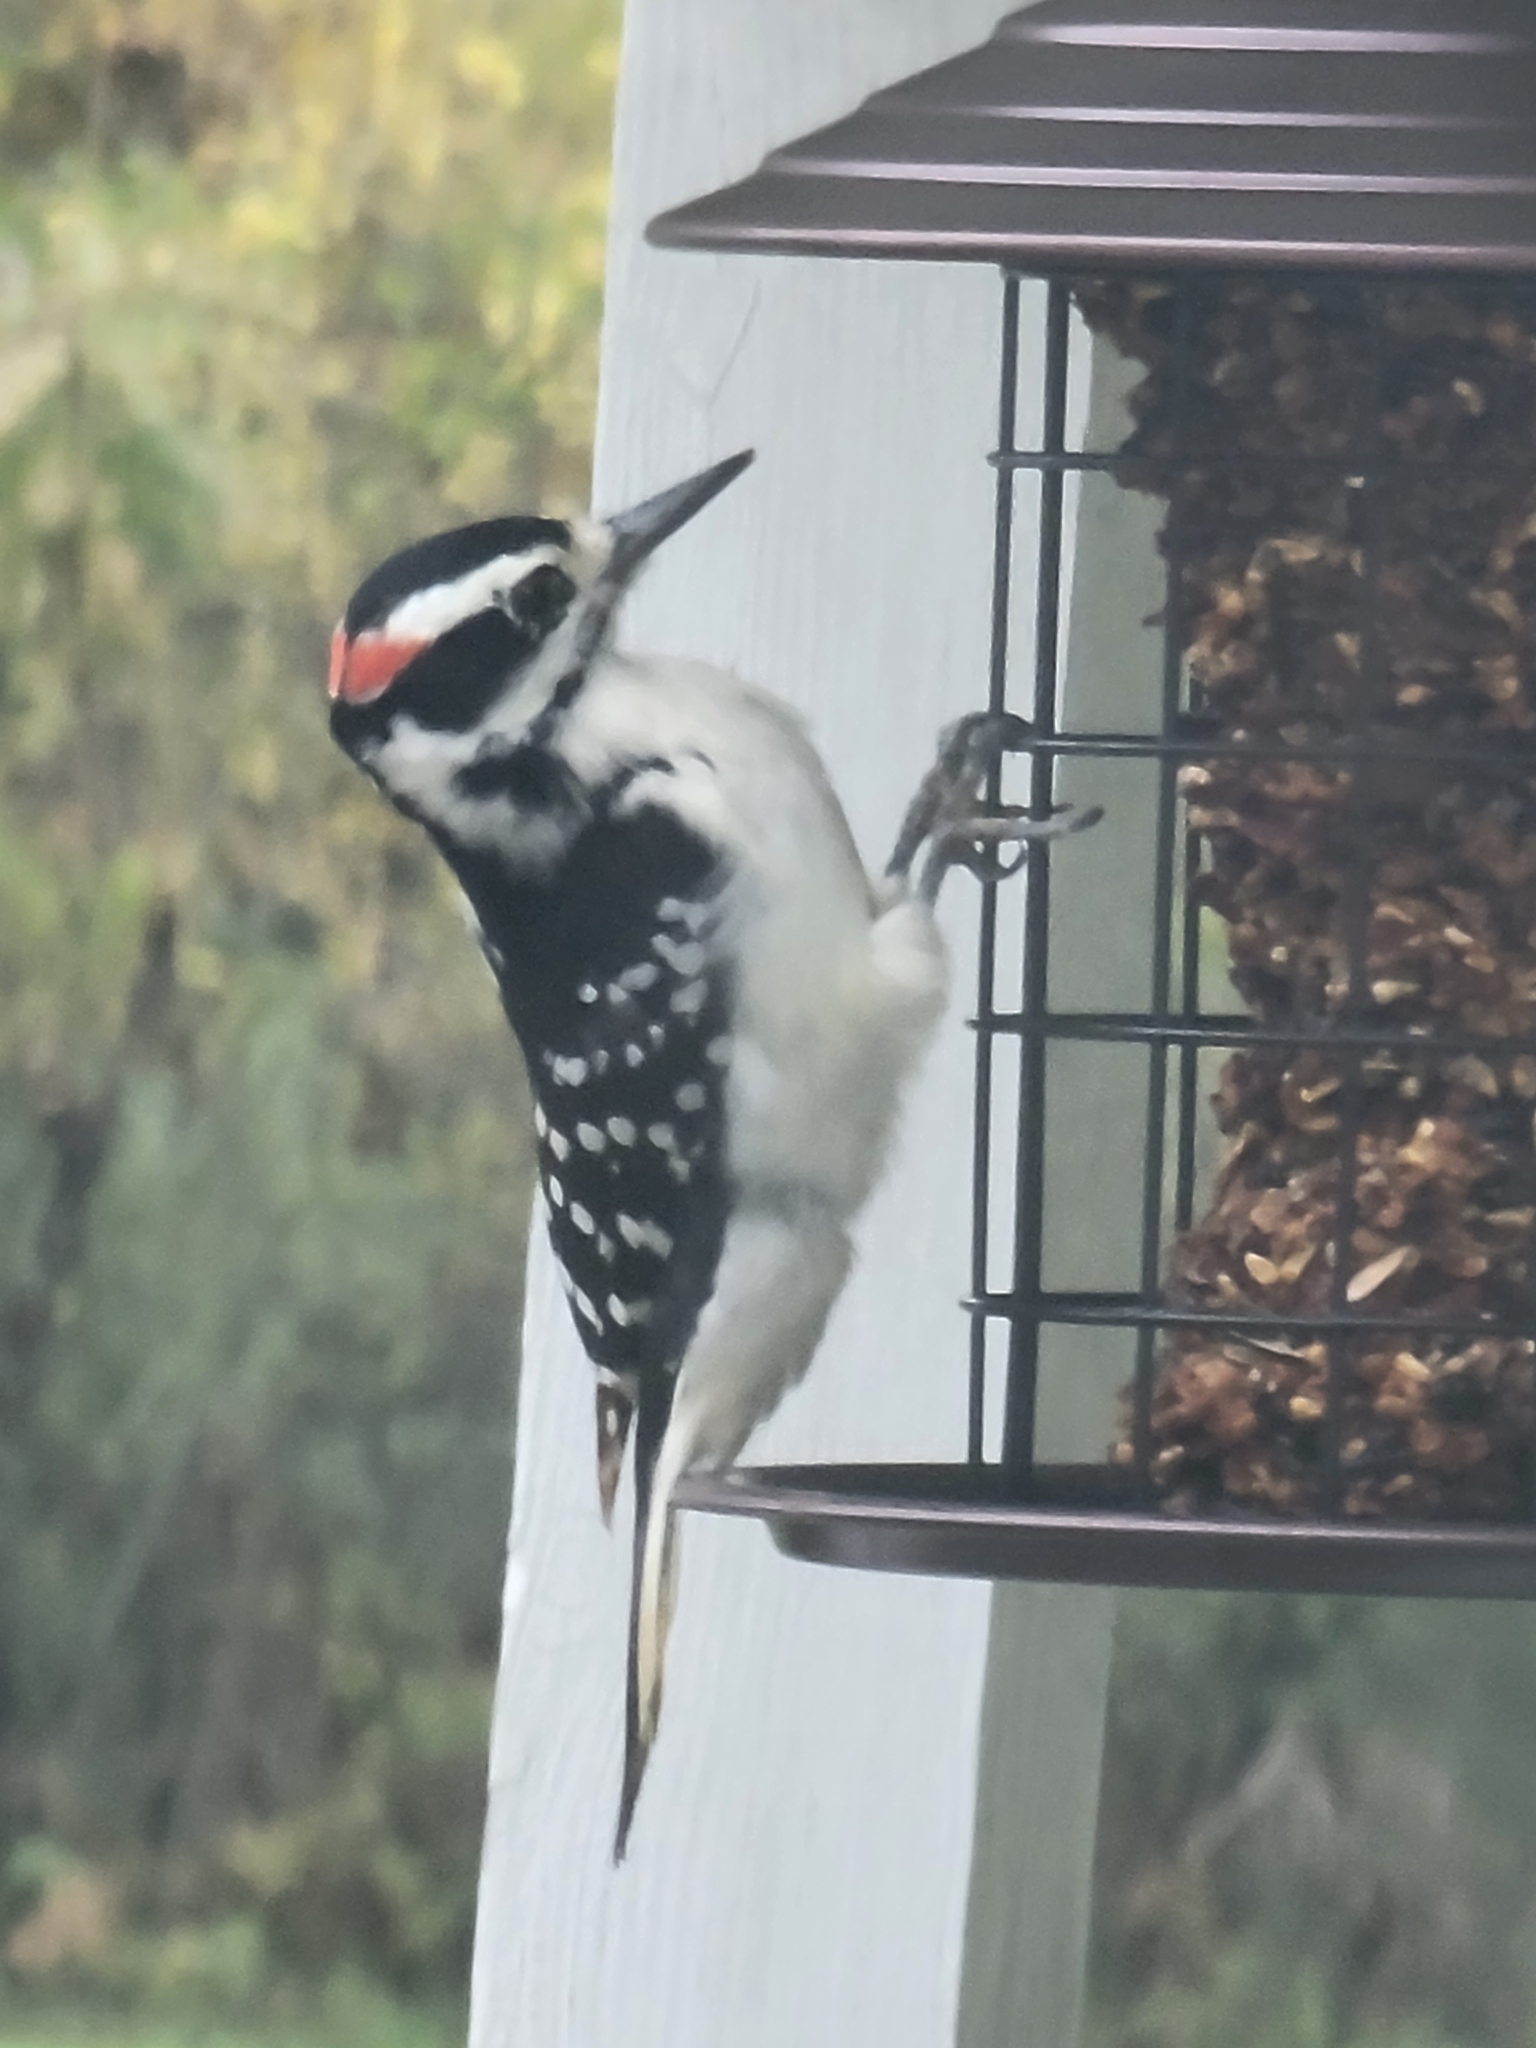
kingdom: Animalia
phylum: Chordata
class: Aves
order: Piciformes
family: Picidae
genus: Leuconotopicus
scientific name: Leuconotopicus villosus
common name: Hairy woodpecker
